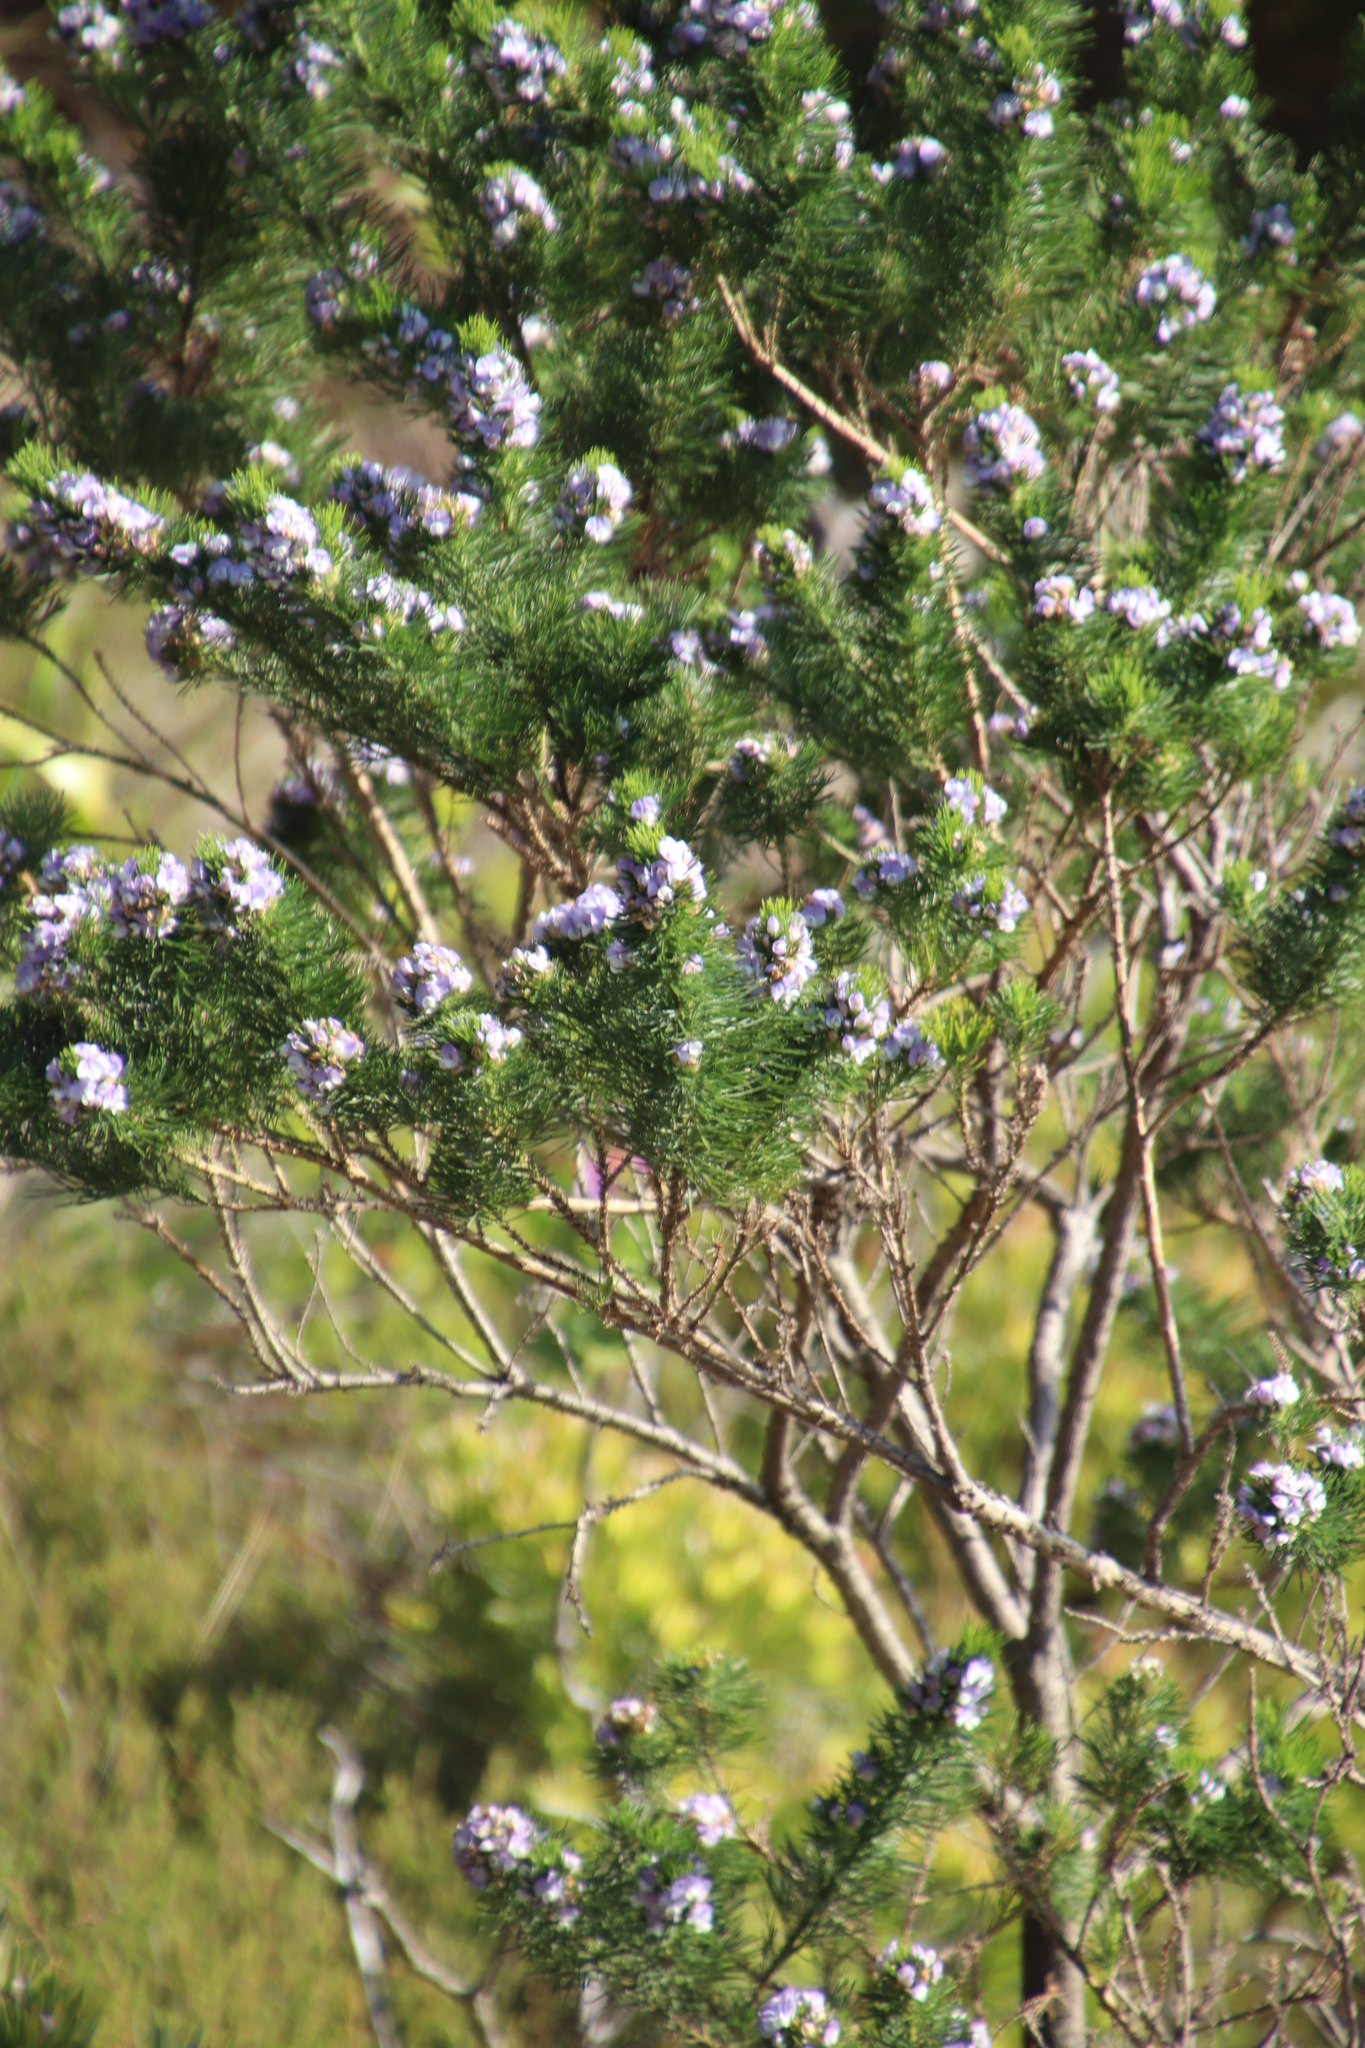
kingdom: Plantae
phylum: Tracheophyta
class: Magnoliopsida
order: Fabales
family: Fabaceae
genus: Psoralea
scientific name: Psoralea pinnata
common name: African scurfpea
